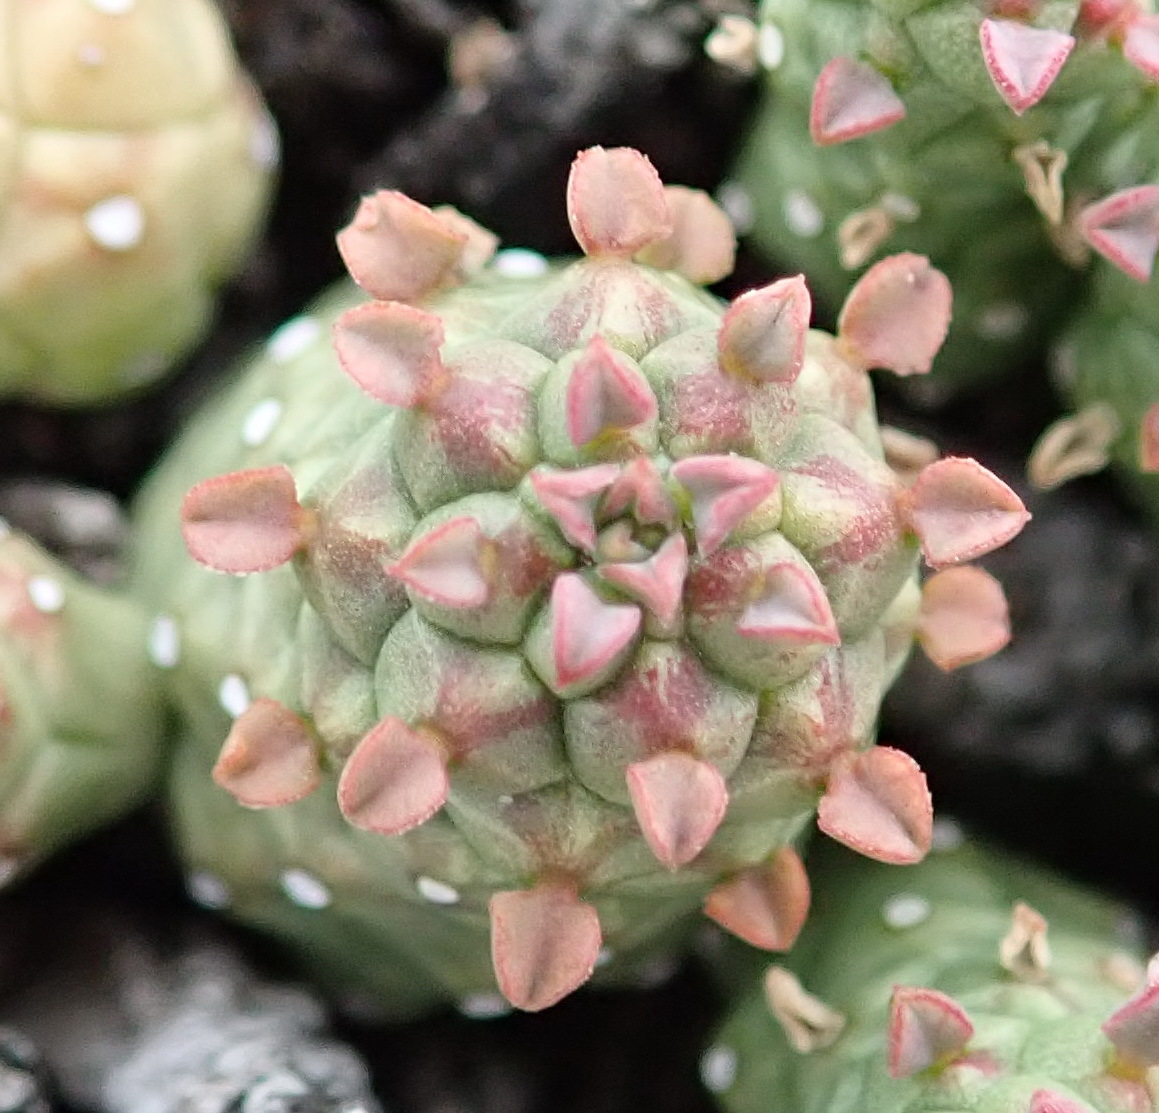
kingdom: Plantae
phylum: Tracheophyta
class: Magnoliopsida
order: Malpighiales
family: Euphorbiaceae
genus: Euphorbia
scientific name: Euphorbia willowmorensis
